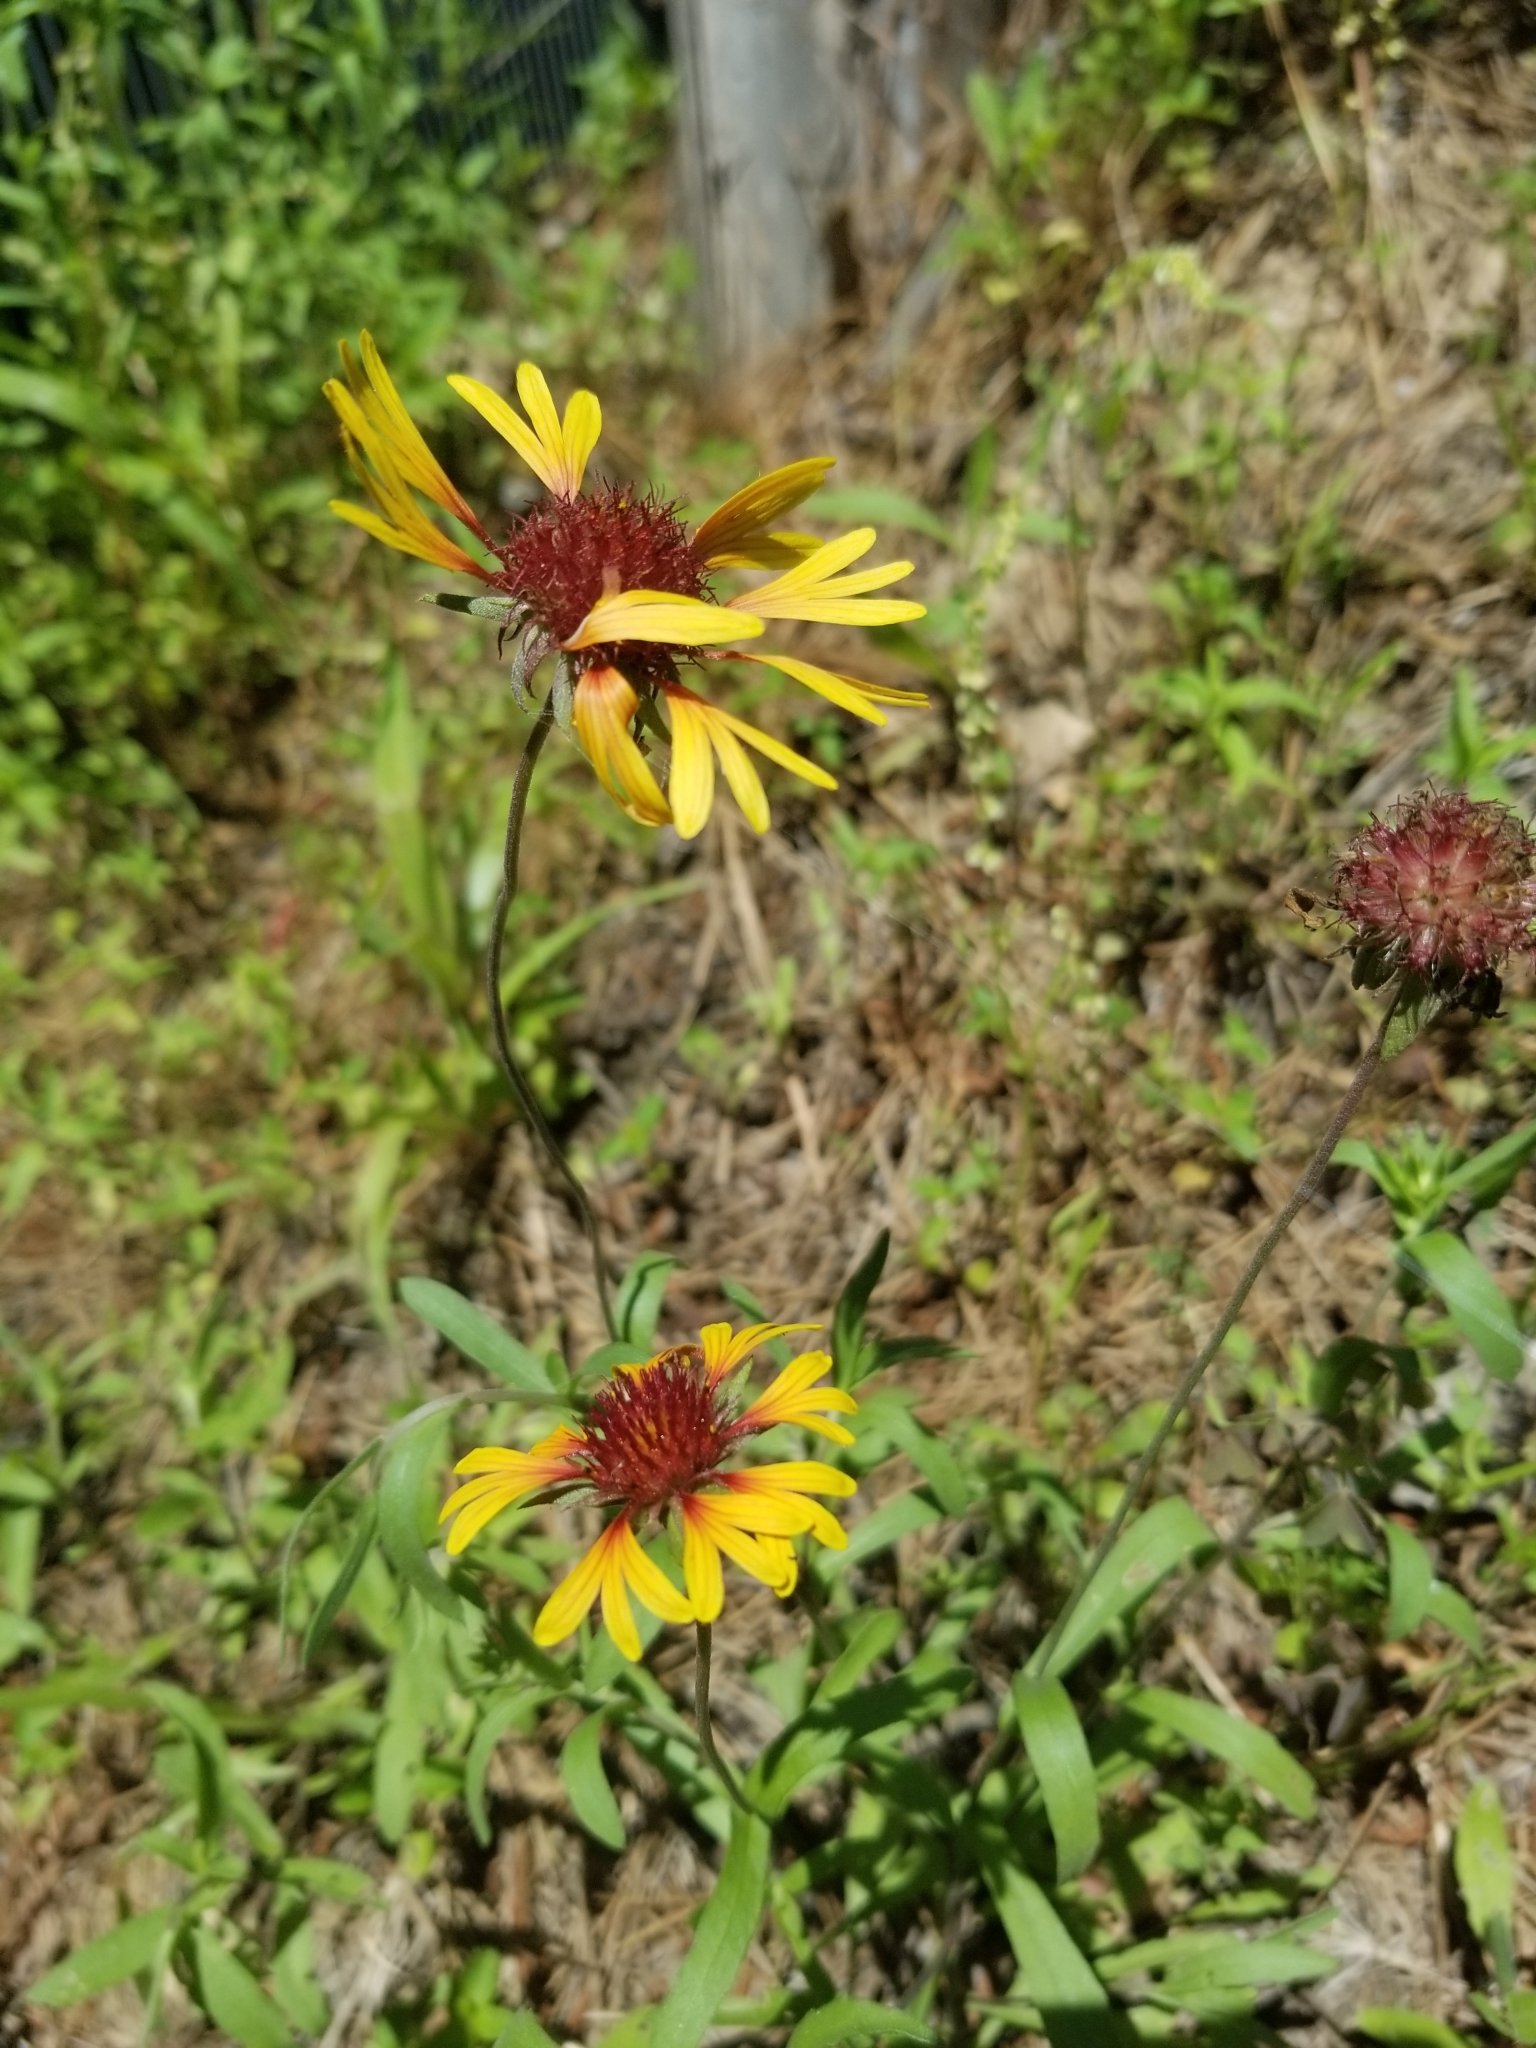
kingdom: Plantae
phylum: Tracheophyta
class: Magnoliopsida
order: Asterales
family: Asteraceae
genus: Gaillardia
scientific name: Gaillardia aestivalis
